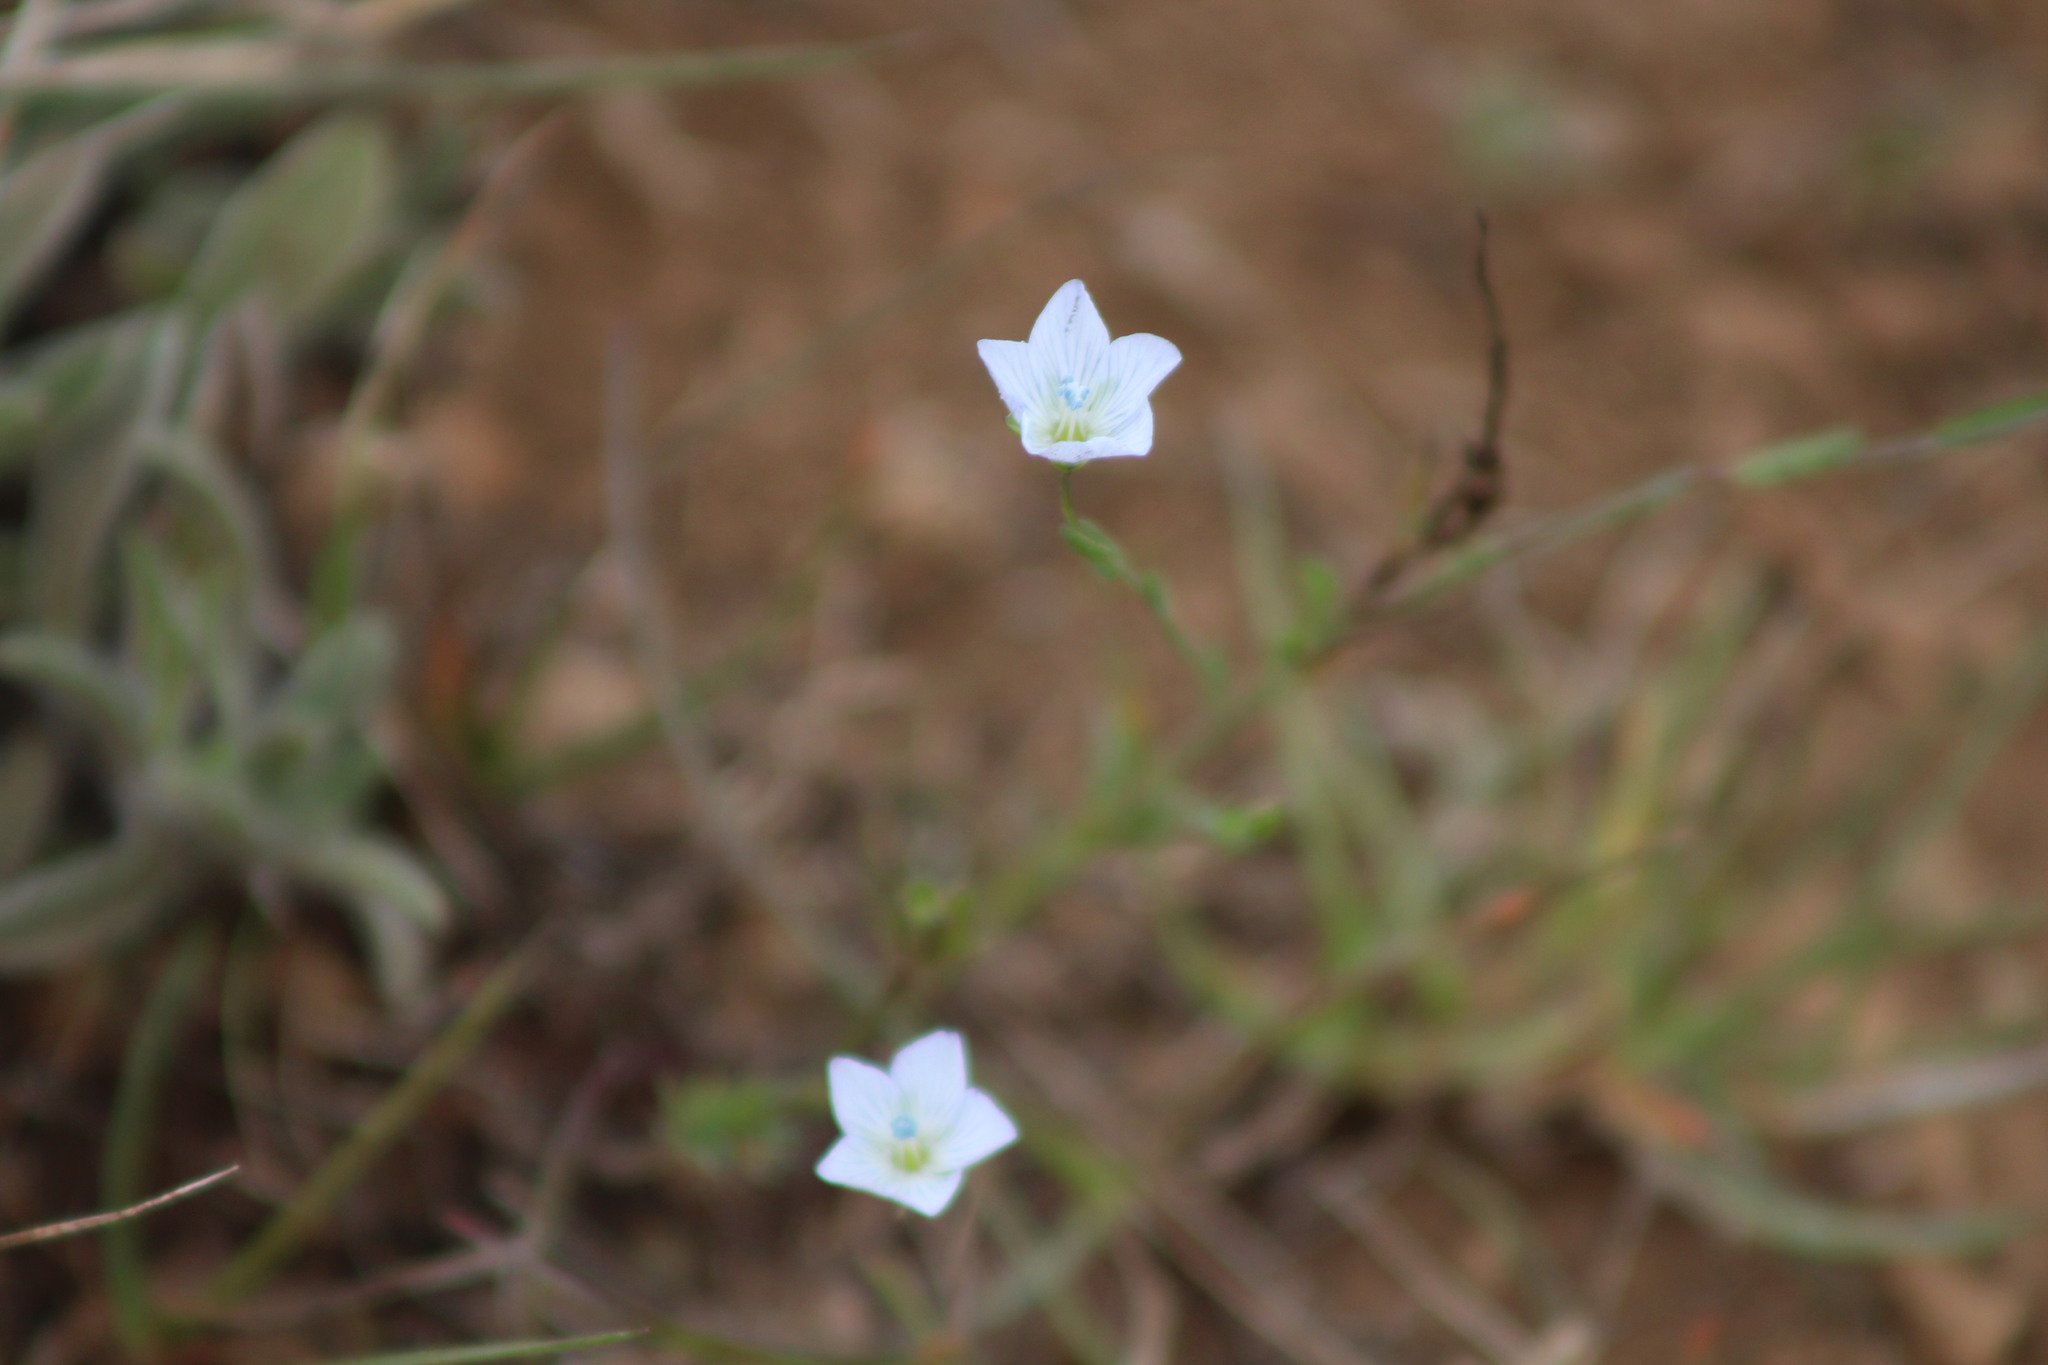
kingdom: Plantae
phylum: Tracheophyta
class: Magnoliopsida
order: Malpighiales
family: Linaceae
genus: Linum
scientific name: Linum bienne
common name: Pale flax
